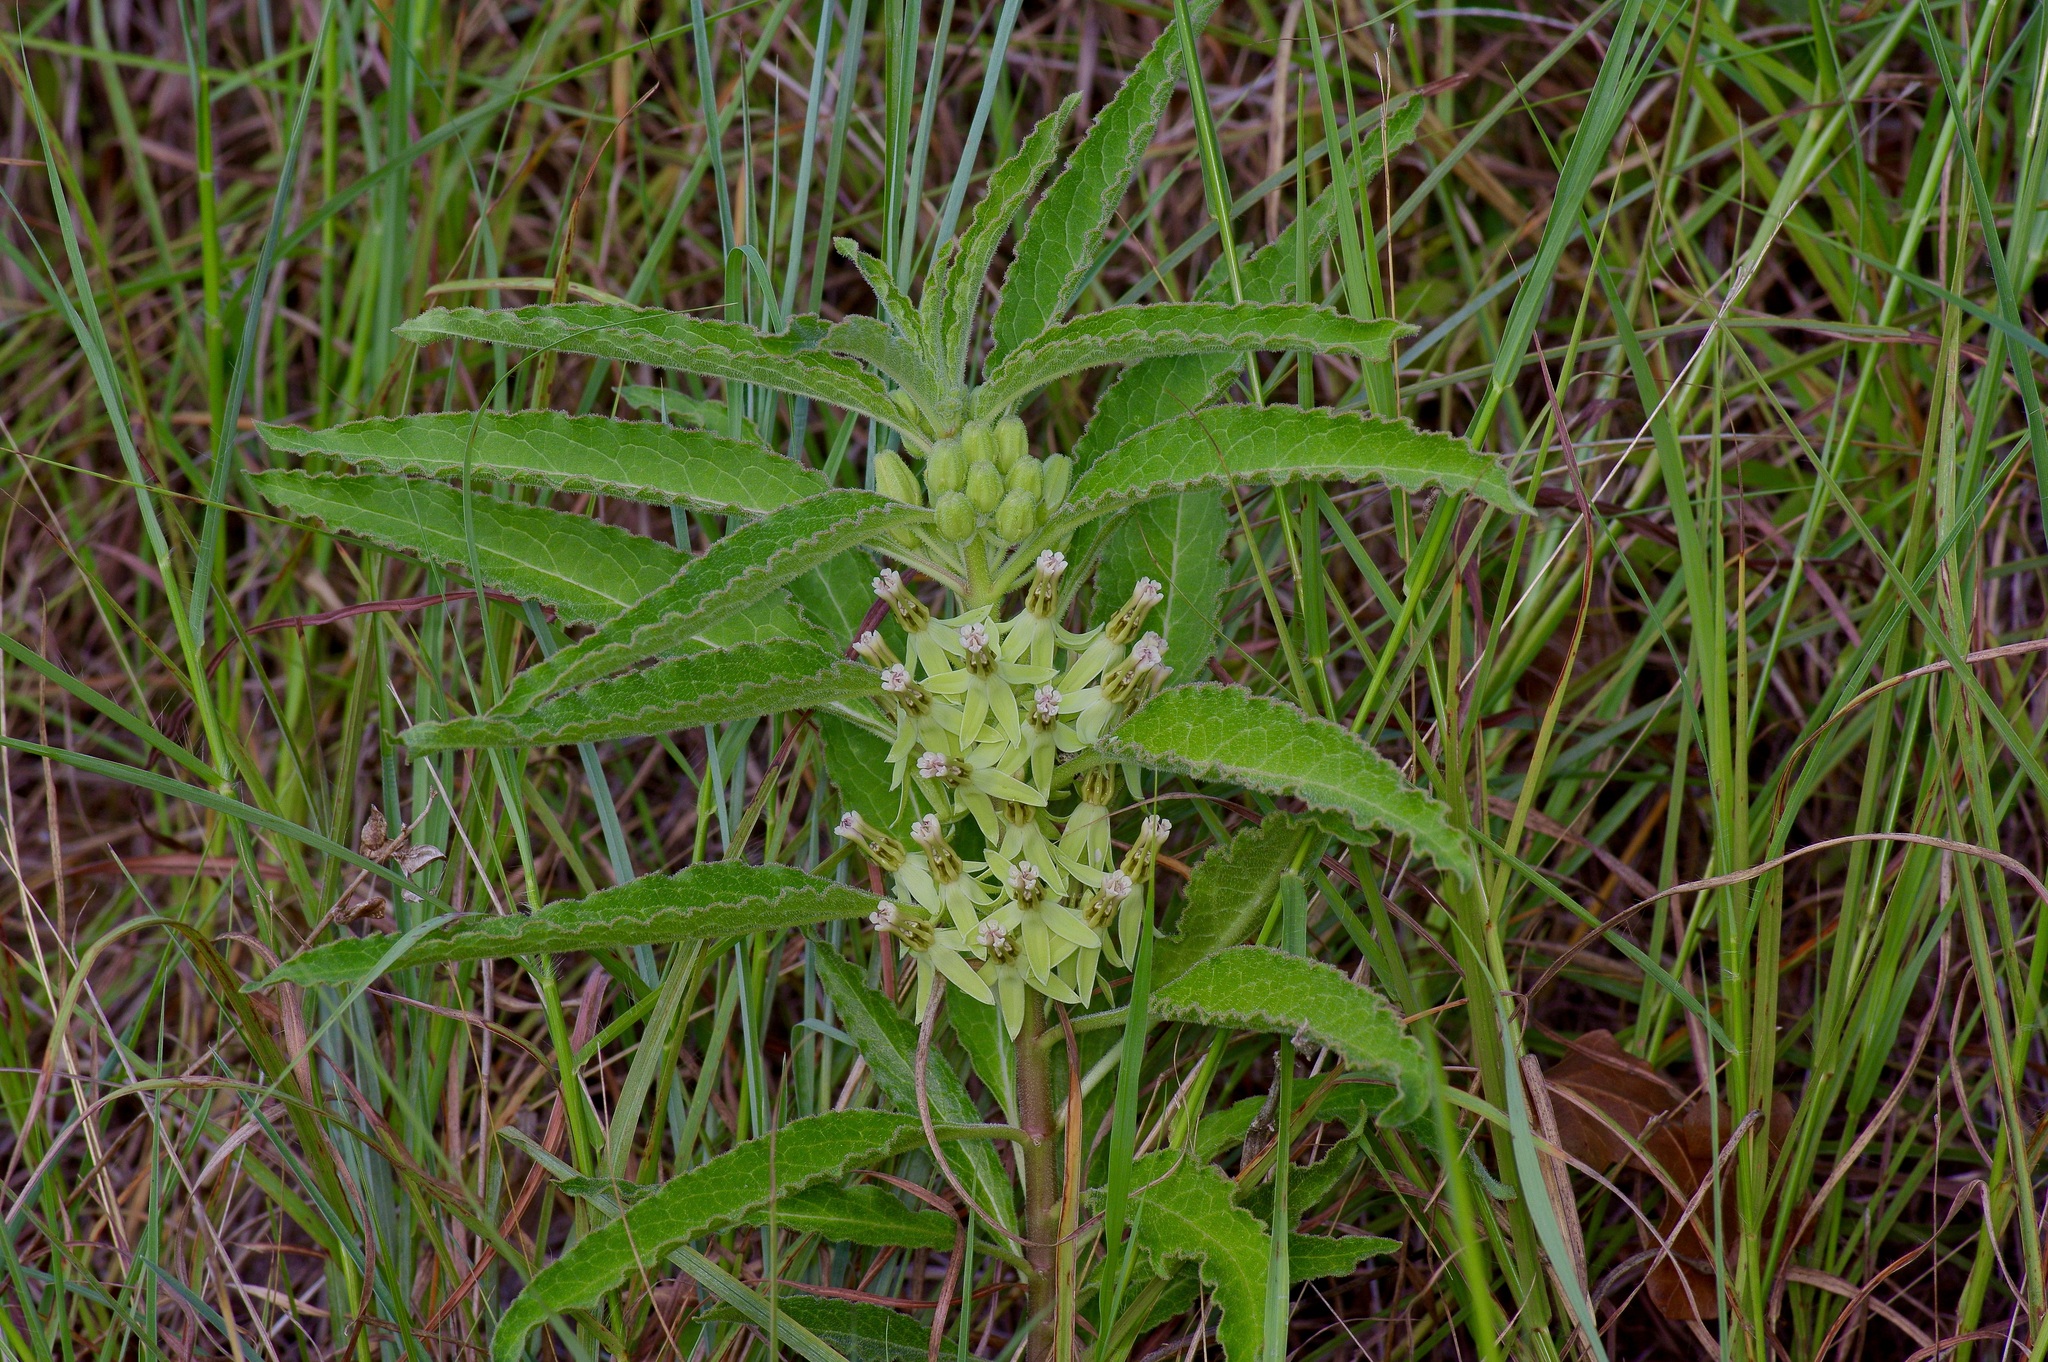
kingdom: Plantae
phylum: Tracheophyta
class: Magnoliopsida
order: Gentianales
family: Apocynaceae
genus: Asclepias
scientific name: Asclepias oenotheroides
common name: Zizotes milkweed
